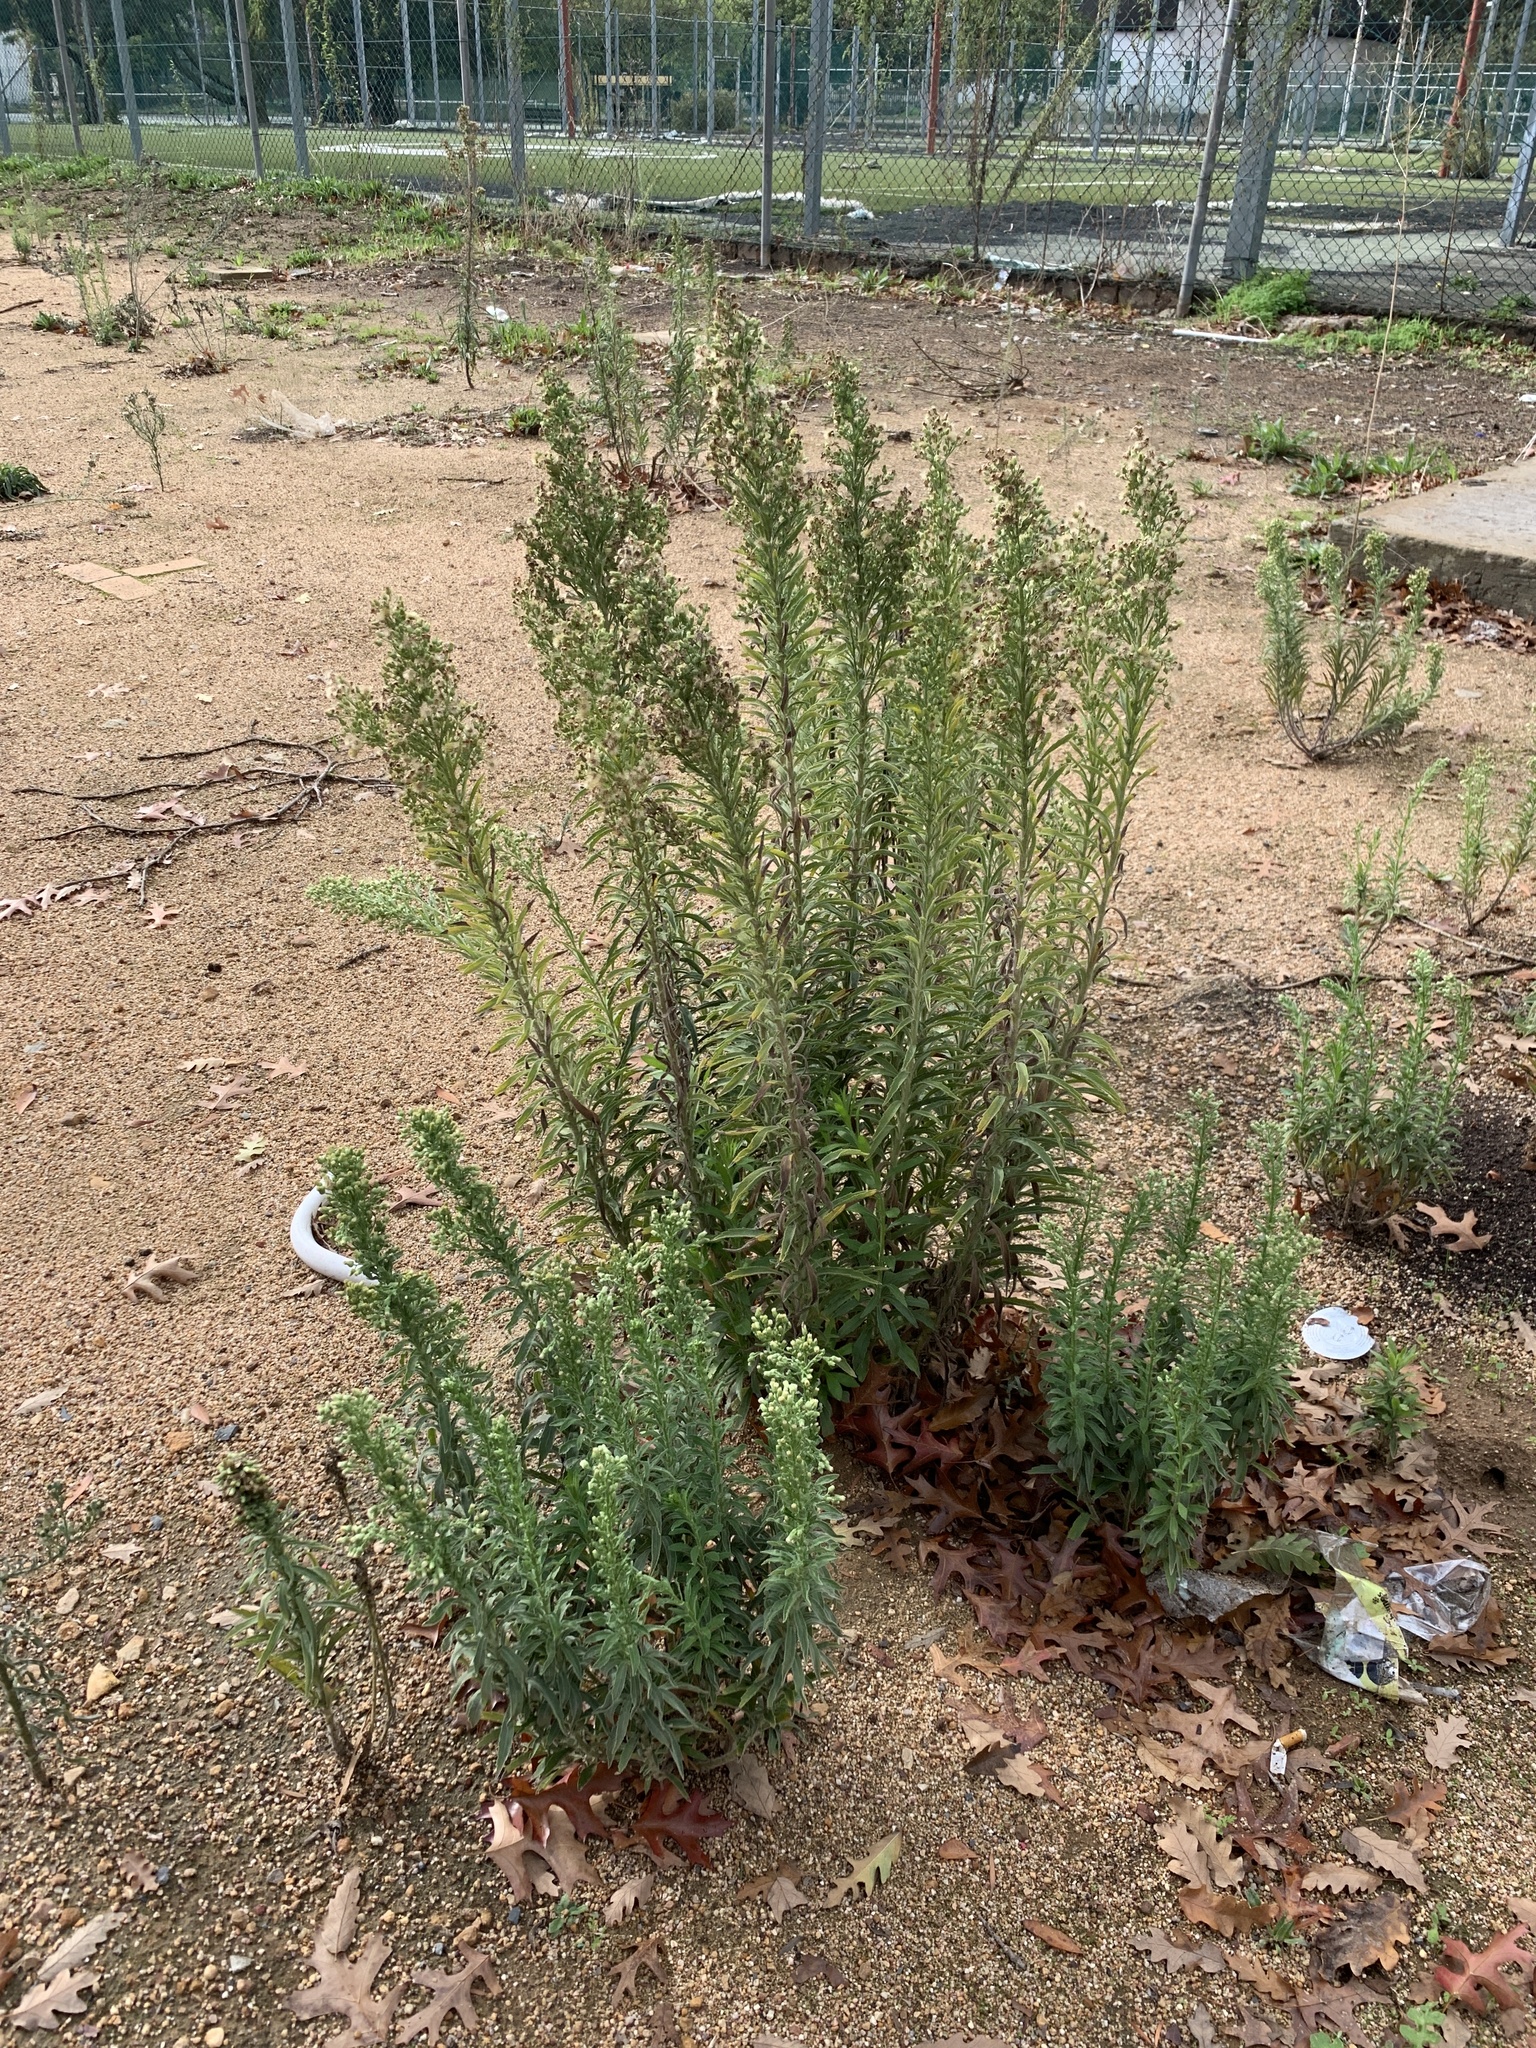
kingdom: Plantae
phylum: Tracheophyta
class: Magnoliopsida
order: Asterales
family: Asteraceae
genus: Erigeron
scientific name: Erigeron sumatrensis
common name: Daisy
